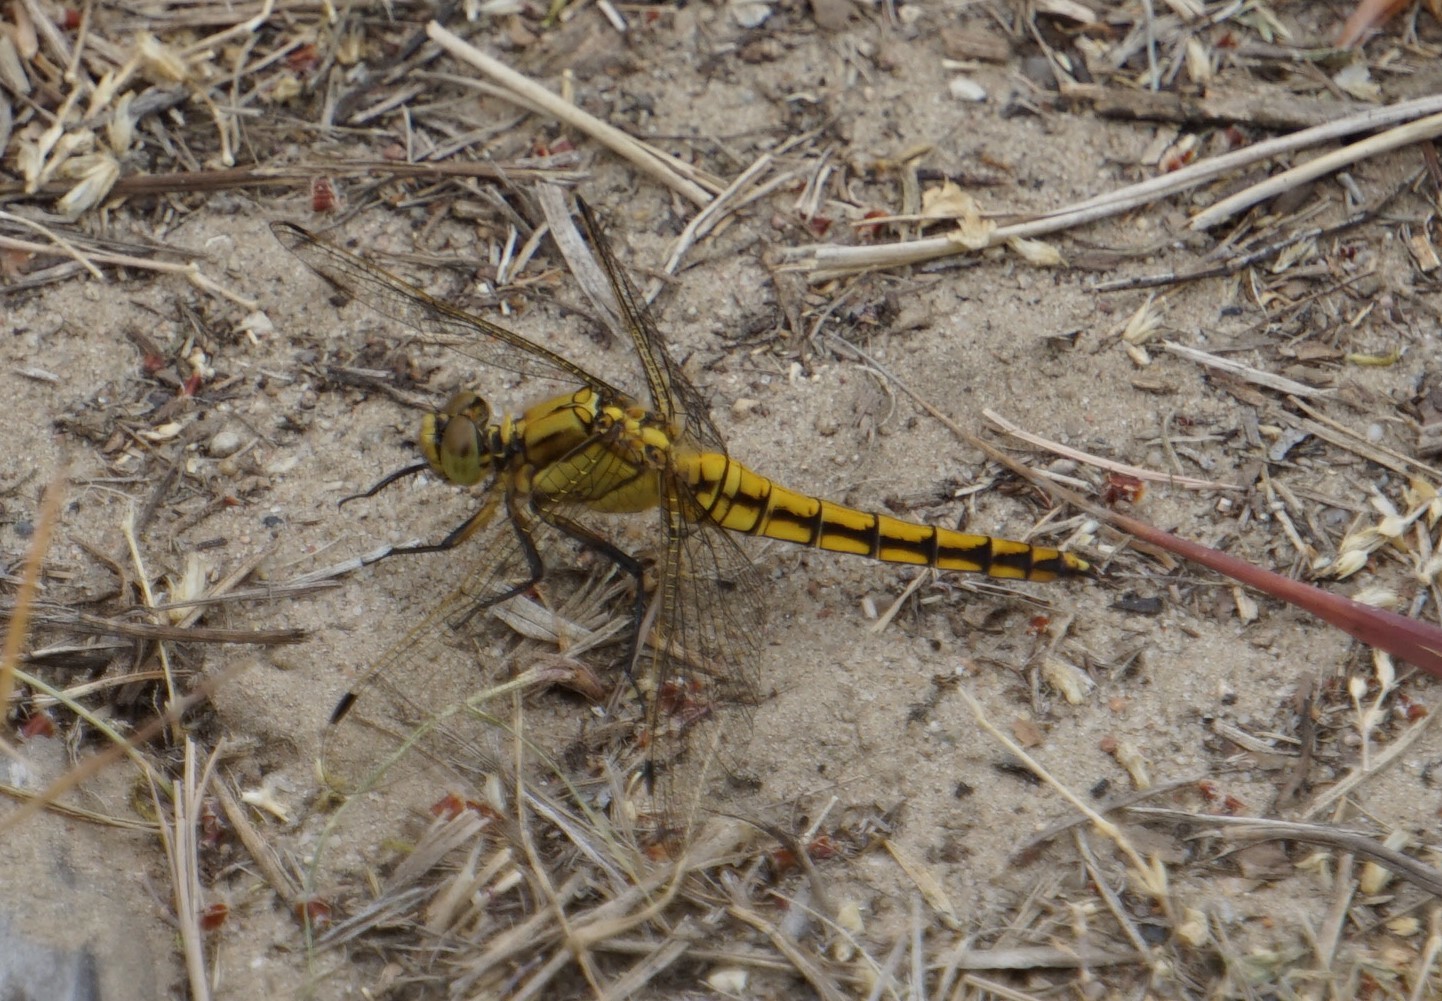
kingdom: Animalia
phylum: Arthropoda
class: Insecta
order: Odonata
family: Libellulidae
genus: Orthetrum
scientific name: Orthetrum cancellatum
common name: Black-tailed skimmer
